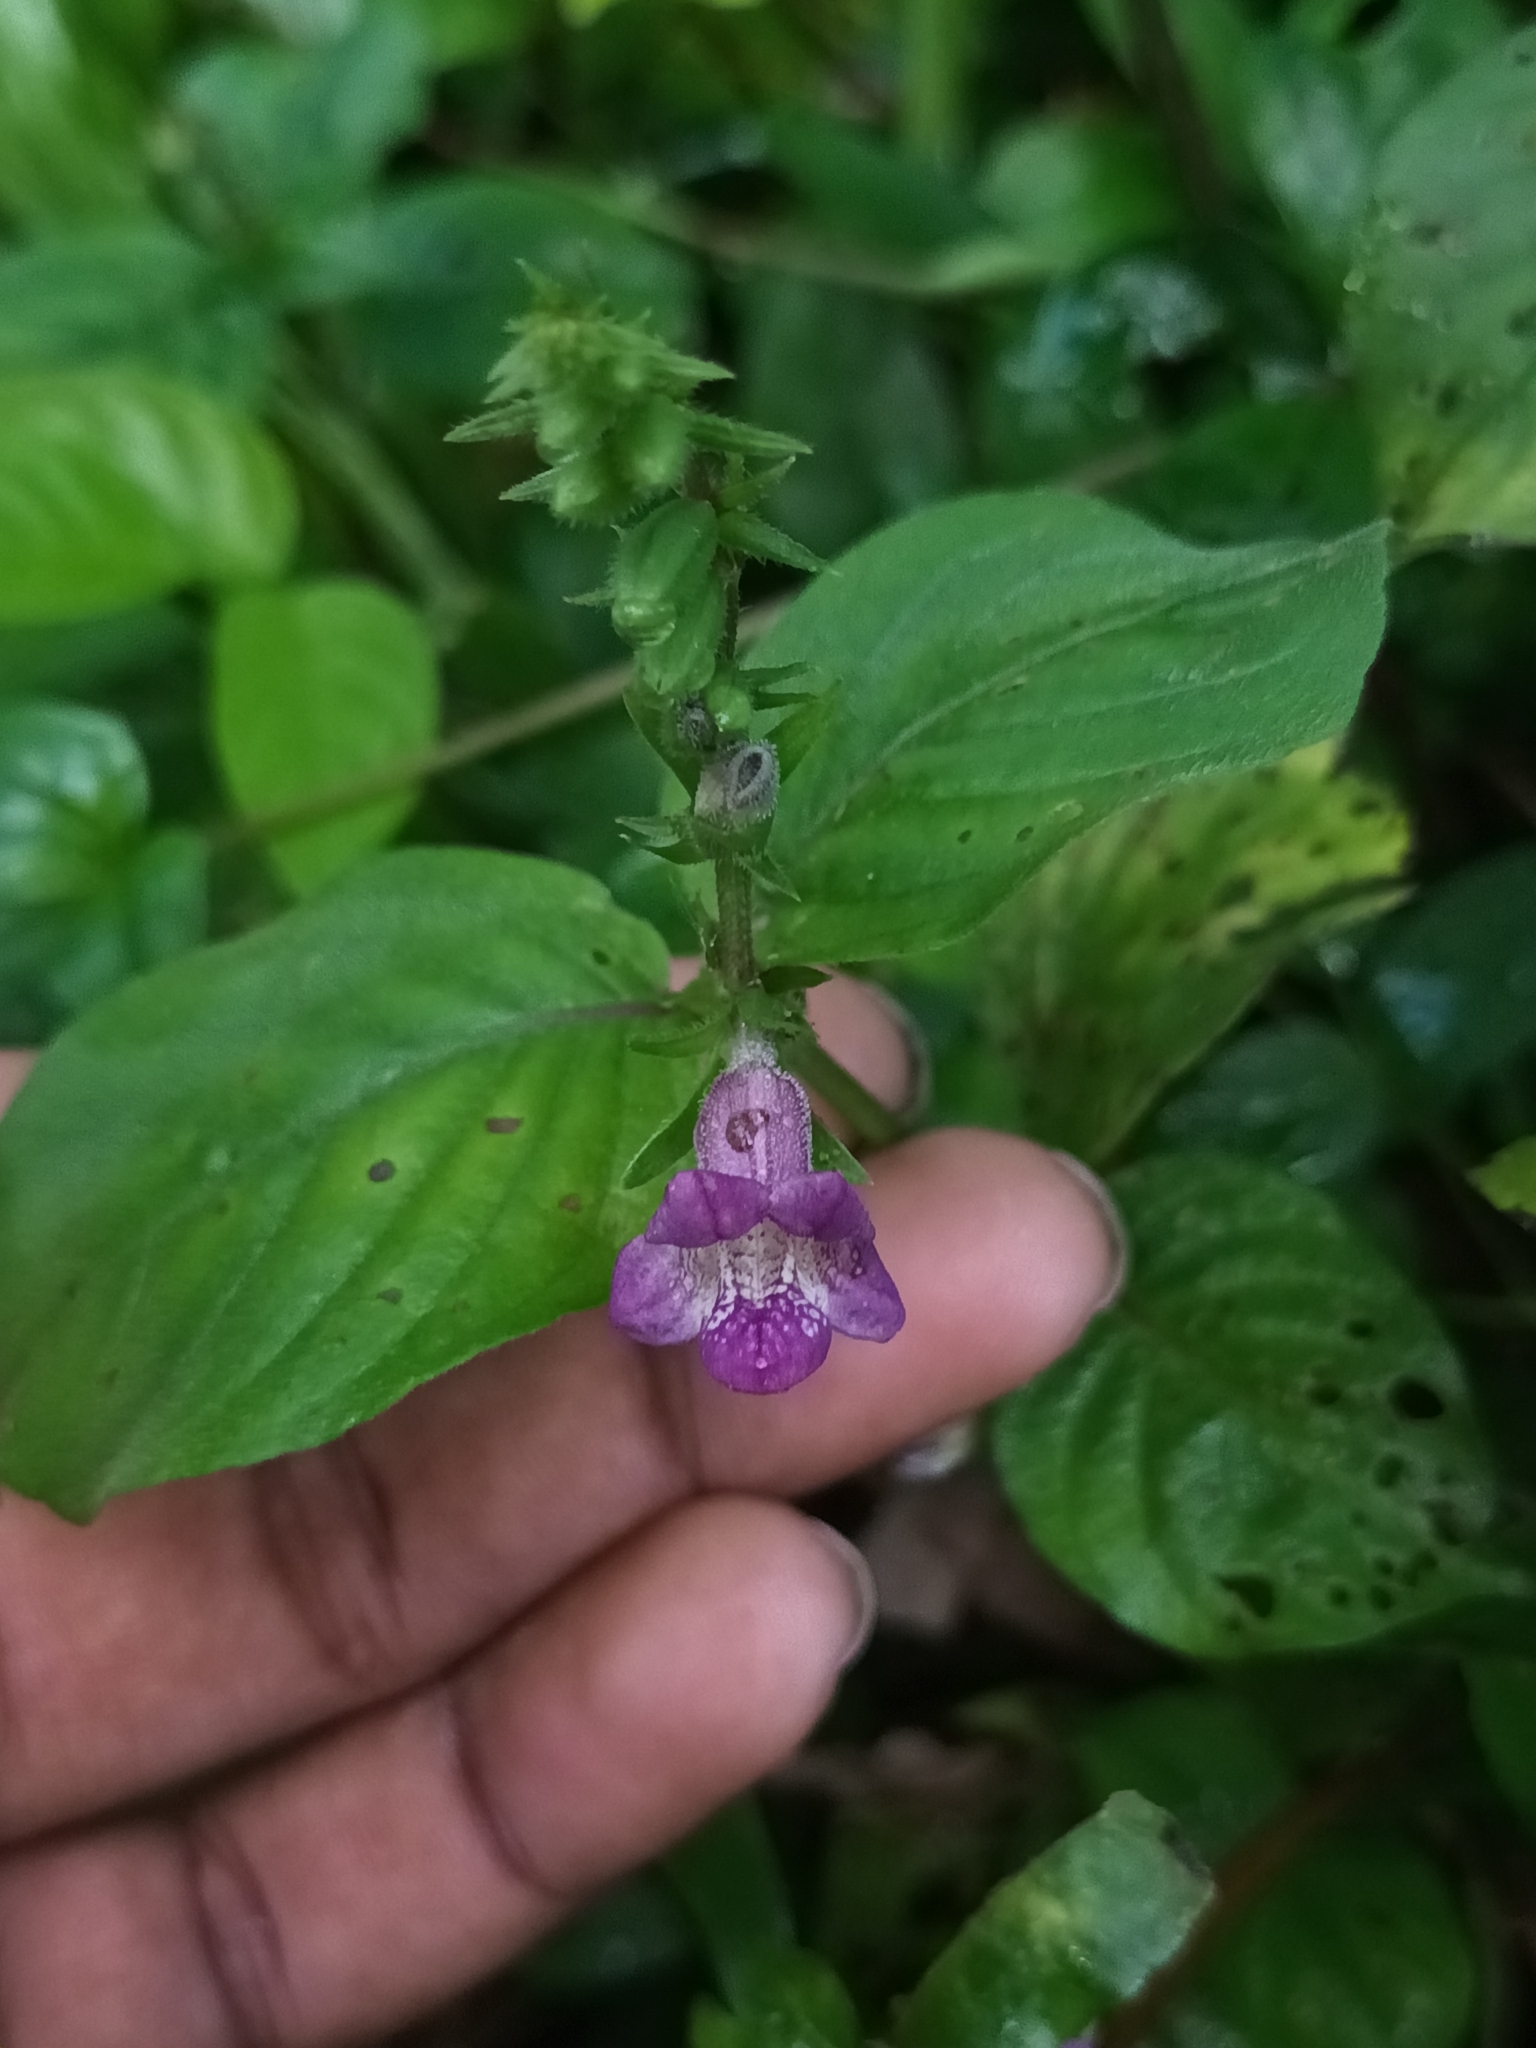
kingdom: Plantae
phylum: Tracheophyta
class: Magnoliopsida
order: Lamiales
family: Acanthaceae
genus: Asystasia
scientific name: Asystasia dalzelliana
